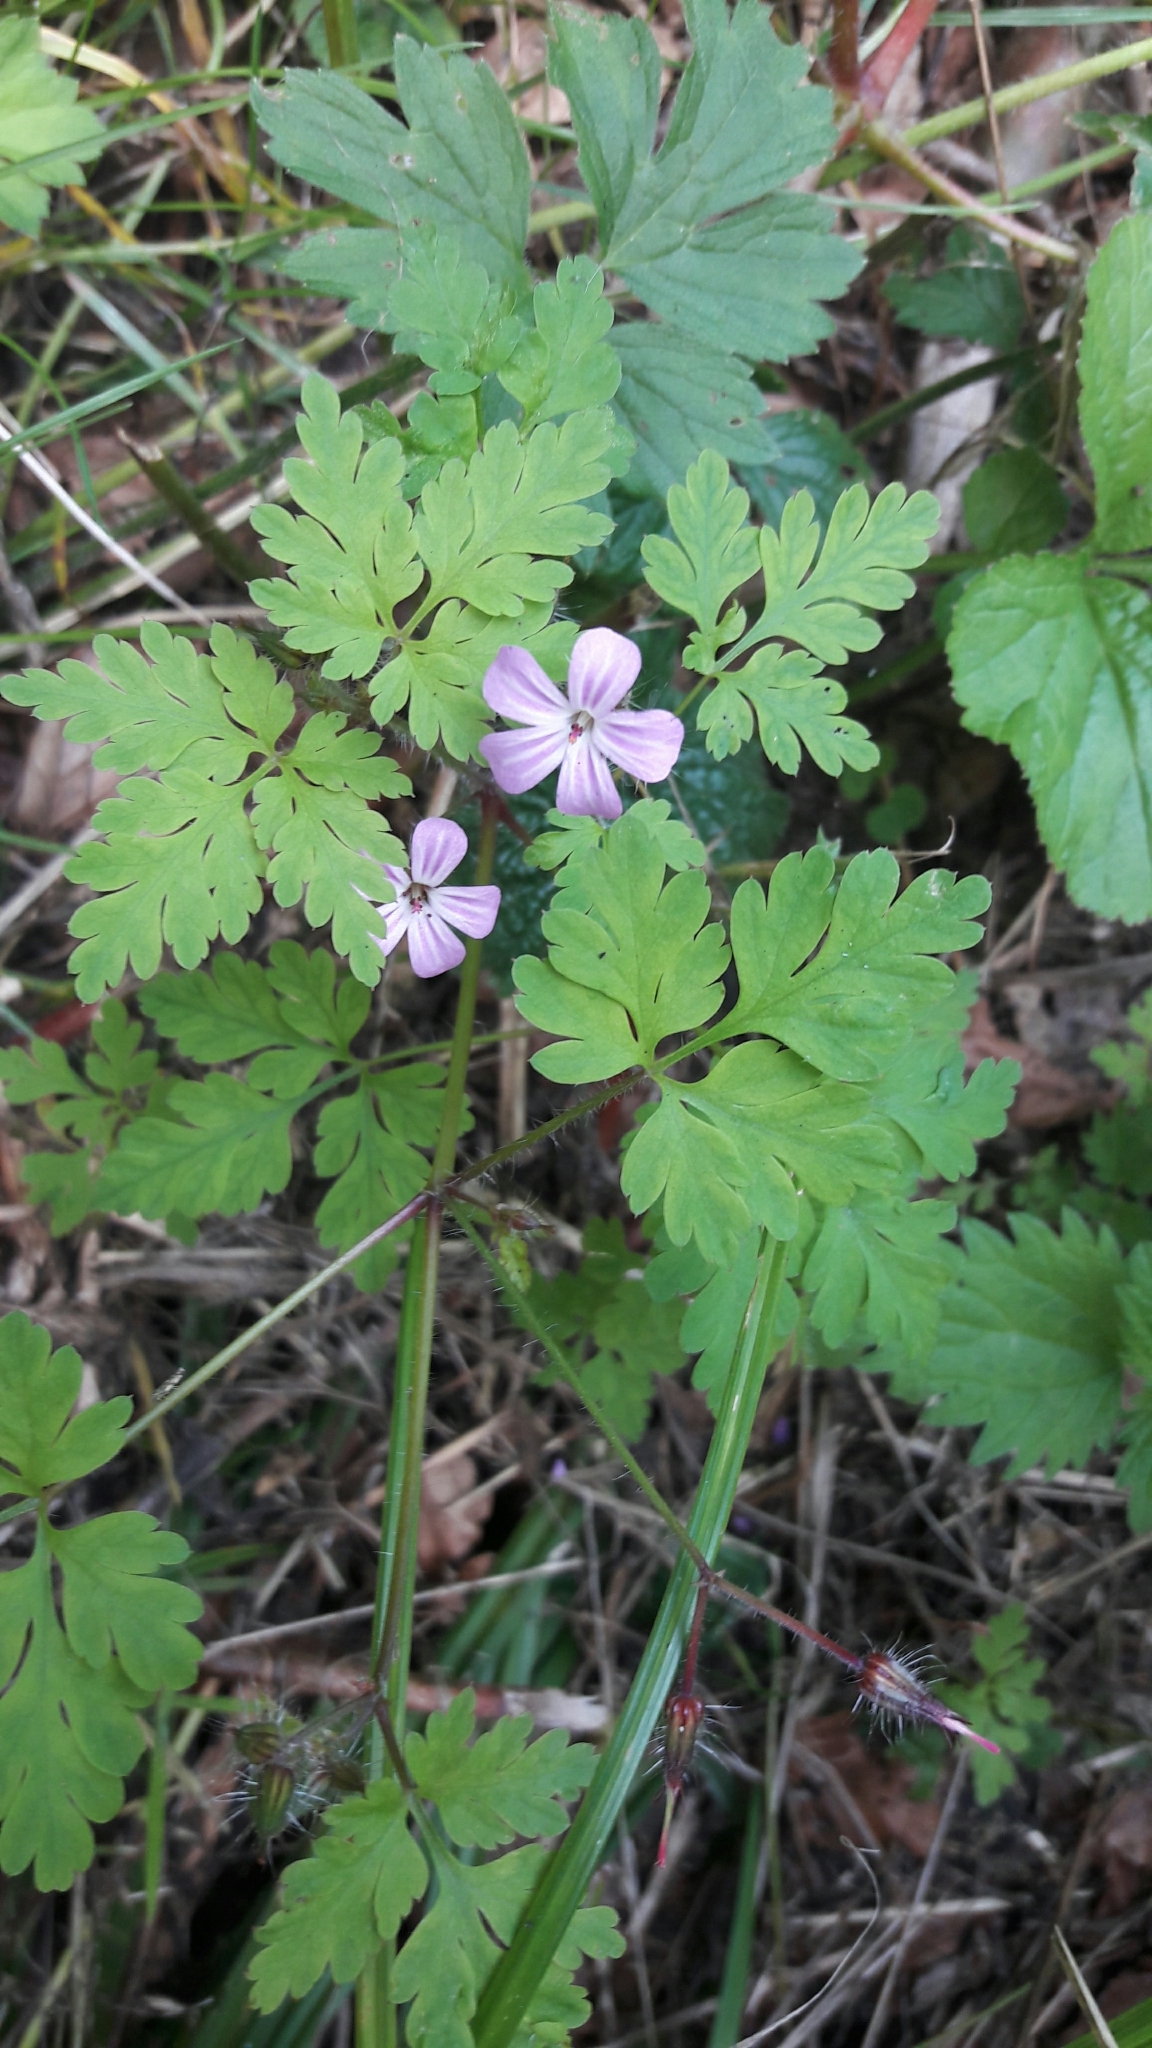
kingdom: Plantae
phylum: Tracheophyta
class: Magnoliopsida
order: Geraniales
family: Geraniaceae
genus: Geranium
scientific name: Geranium robertianum
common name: Herb-robert
